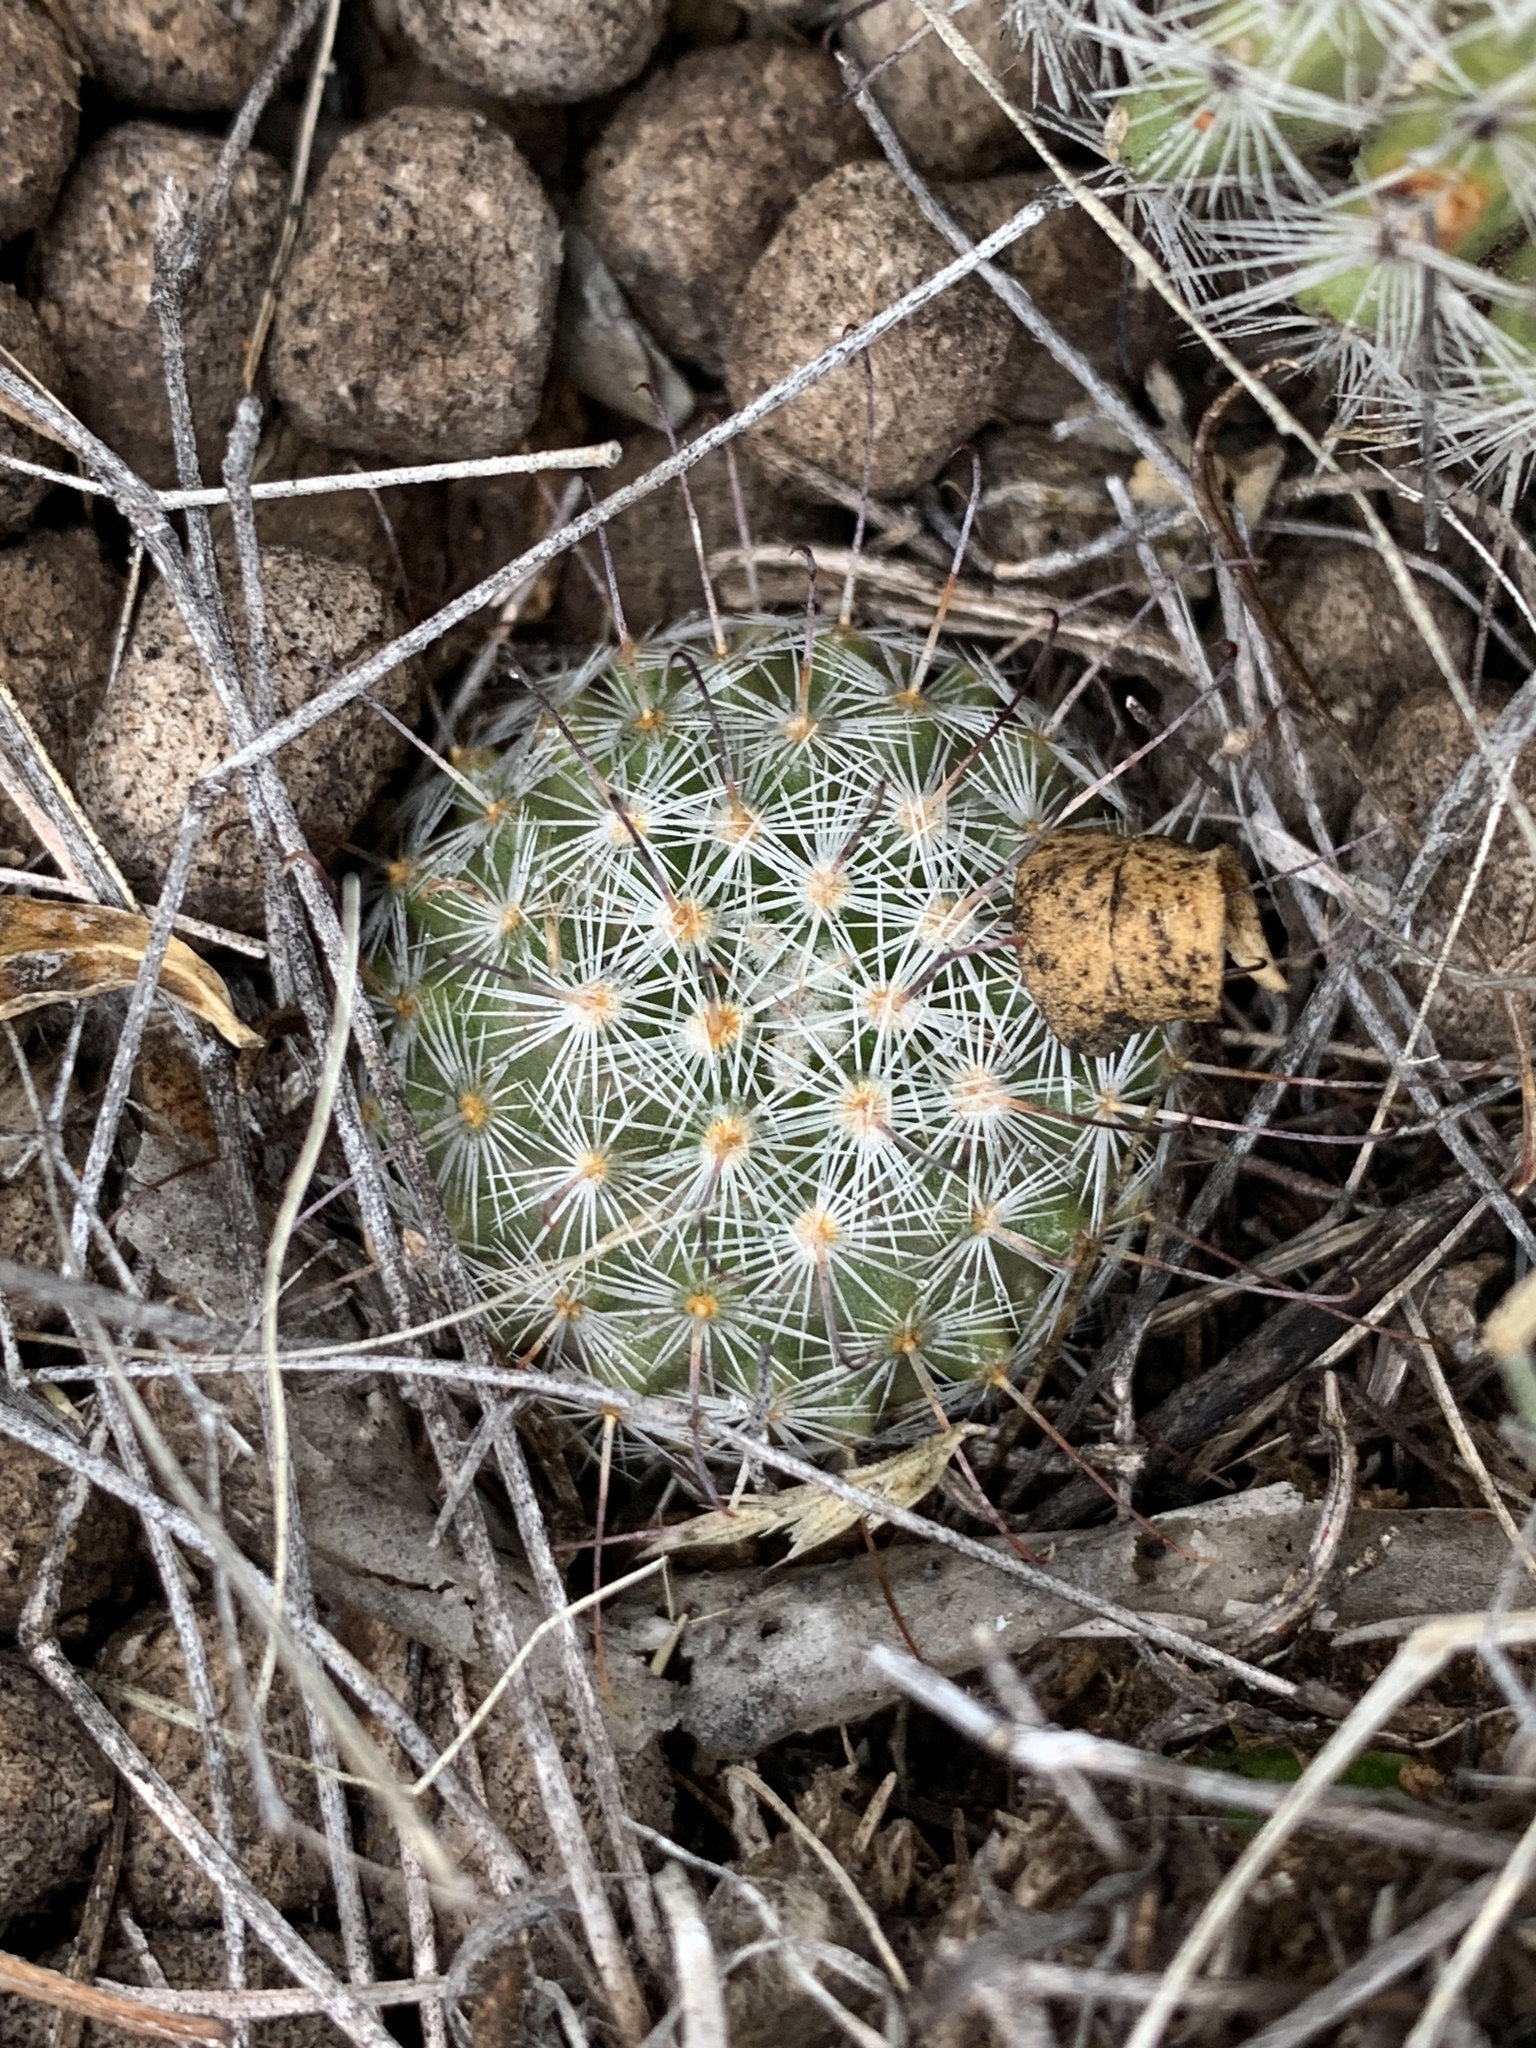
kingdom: Plantae
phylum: Tracheophyta
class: Magnoliopsida
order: Caryophyllales
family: Cactaceae
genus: Cochemiea
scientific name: Cochemiea grahamii
